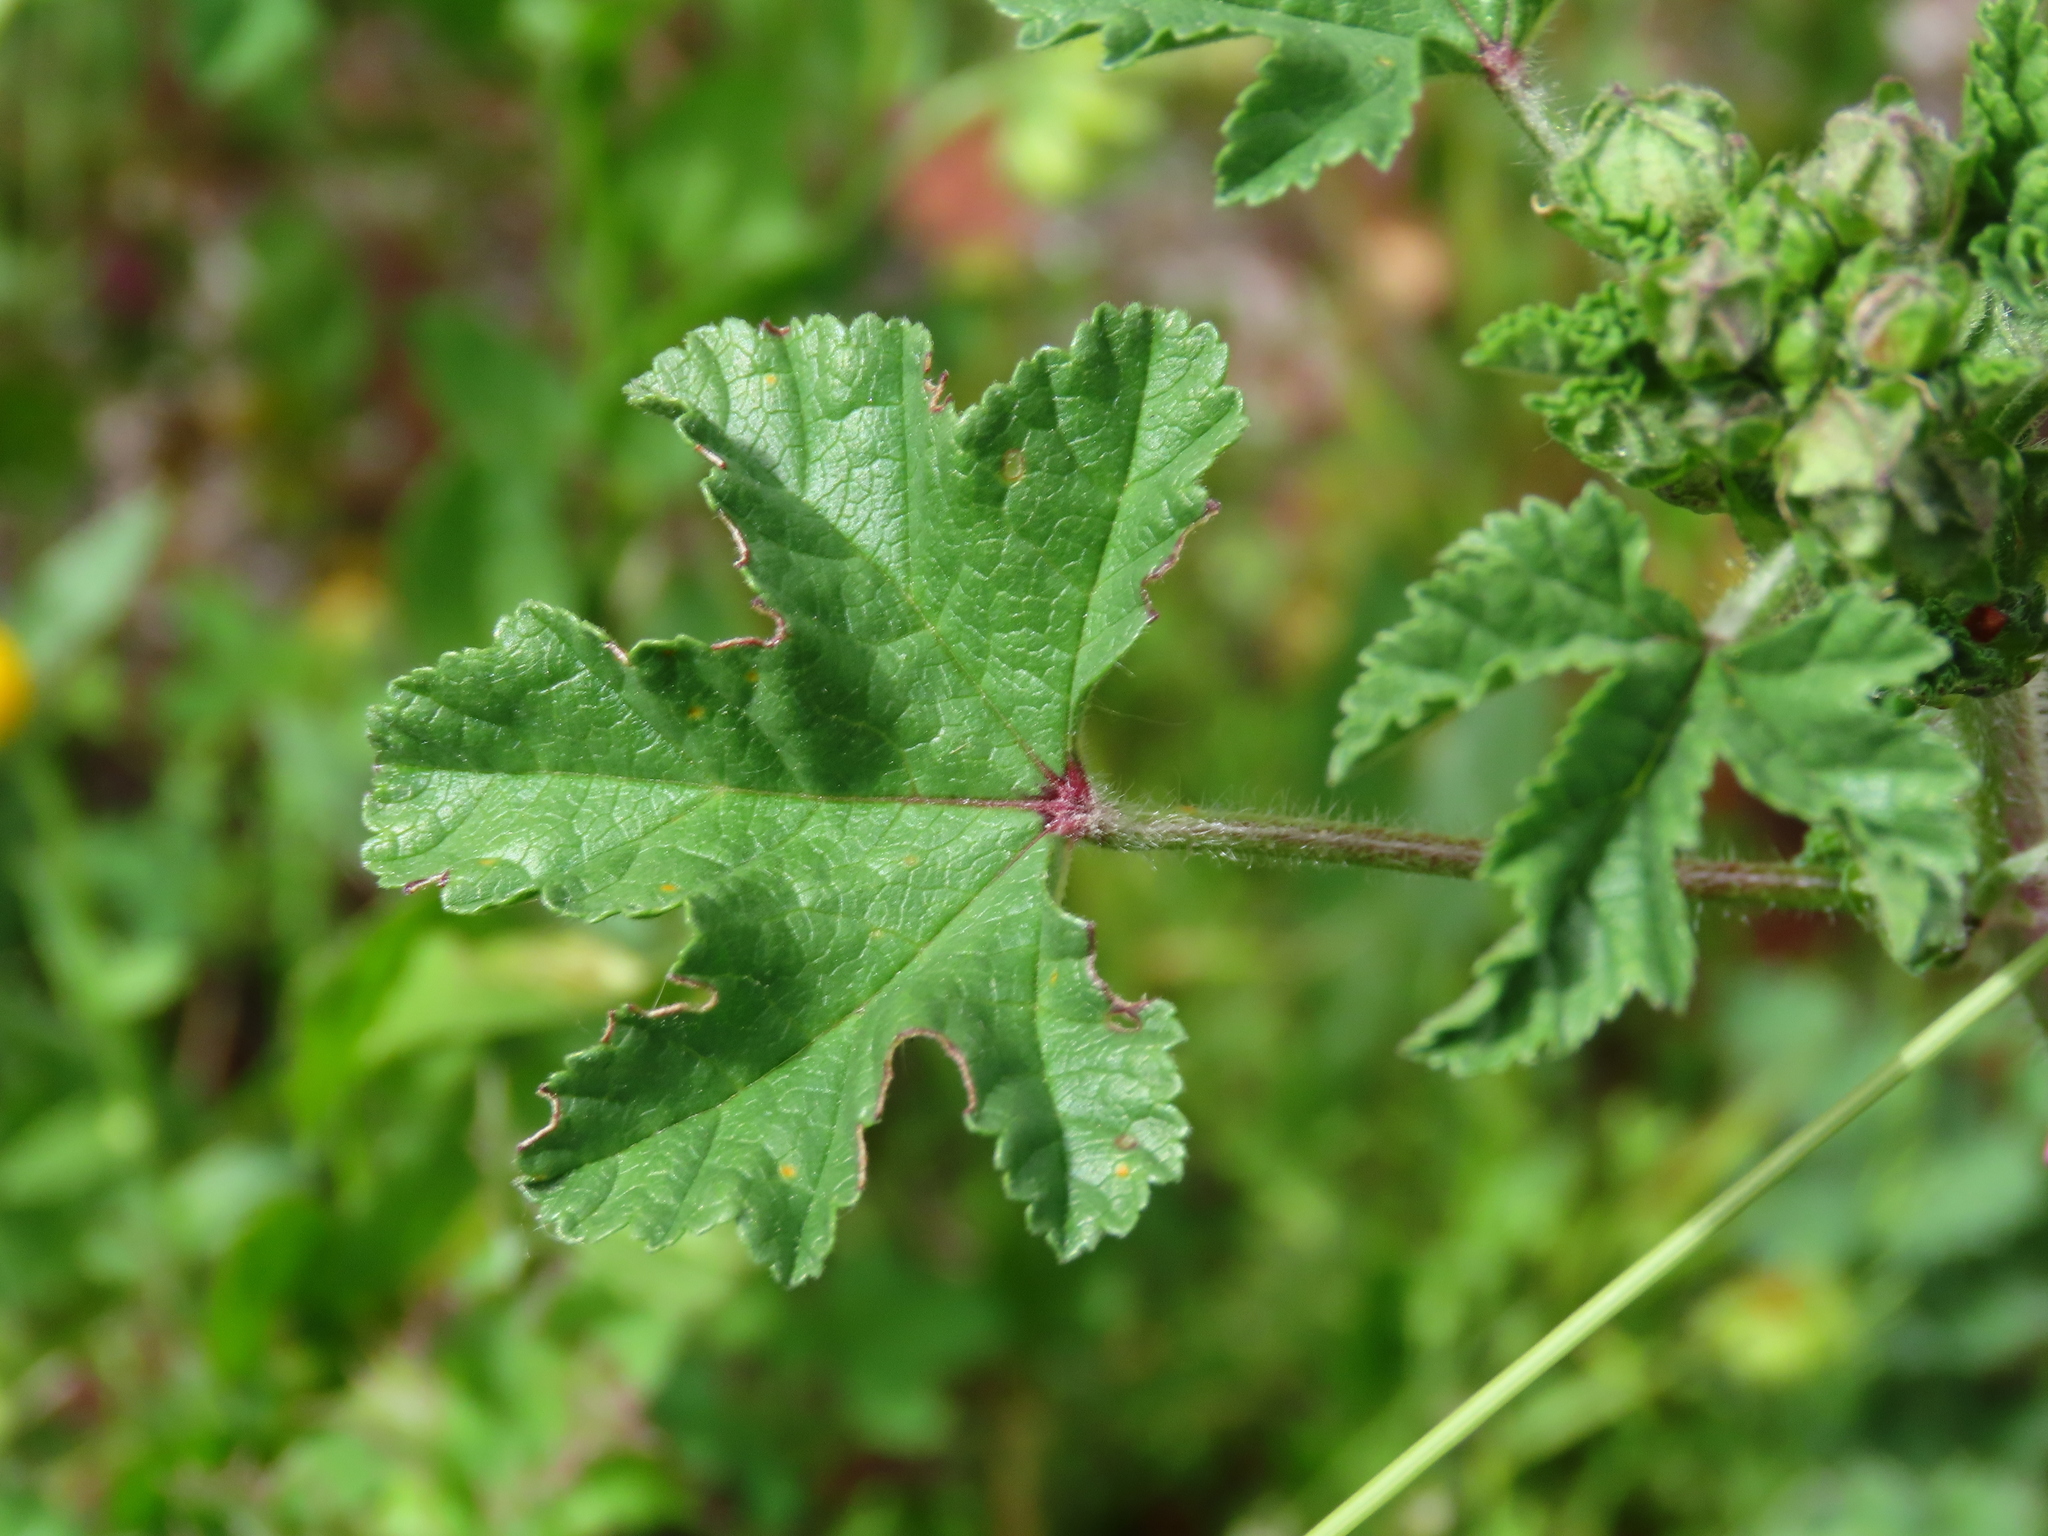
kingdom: Plantae
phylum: Tracheophyta
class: Magnoliopsida
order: Malvales
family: Malvaceae
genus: Malva
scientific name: Malva sylvestris
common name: Common mallow
